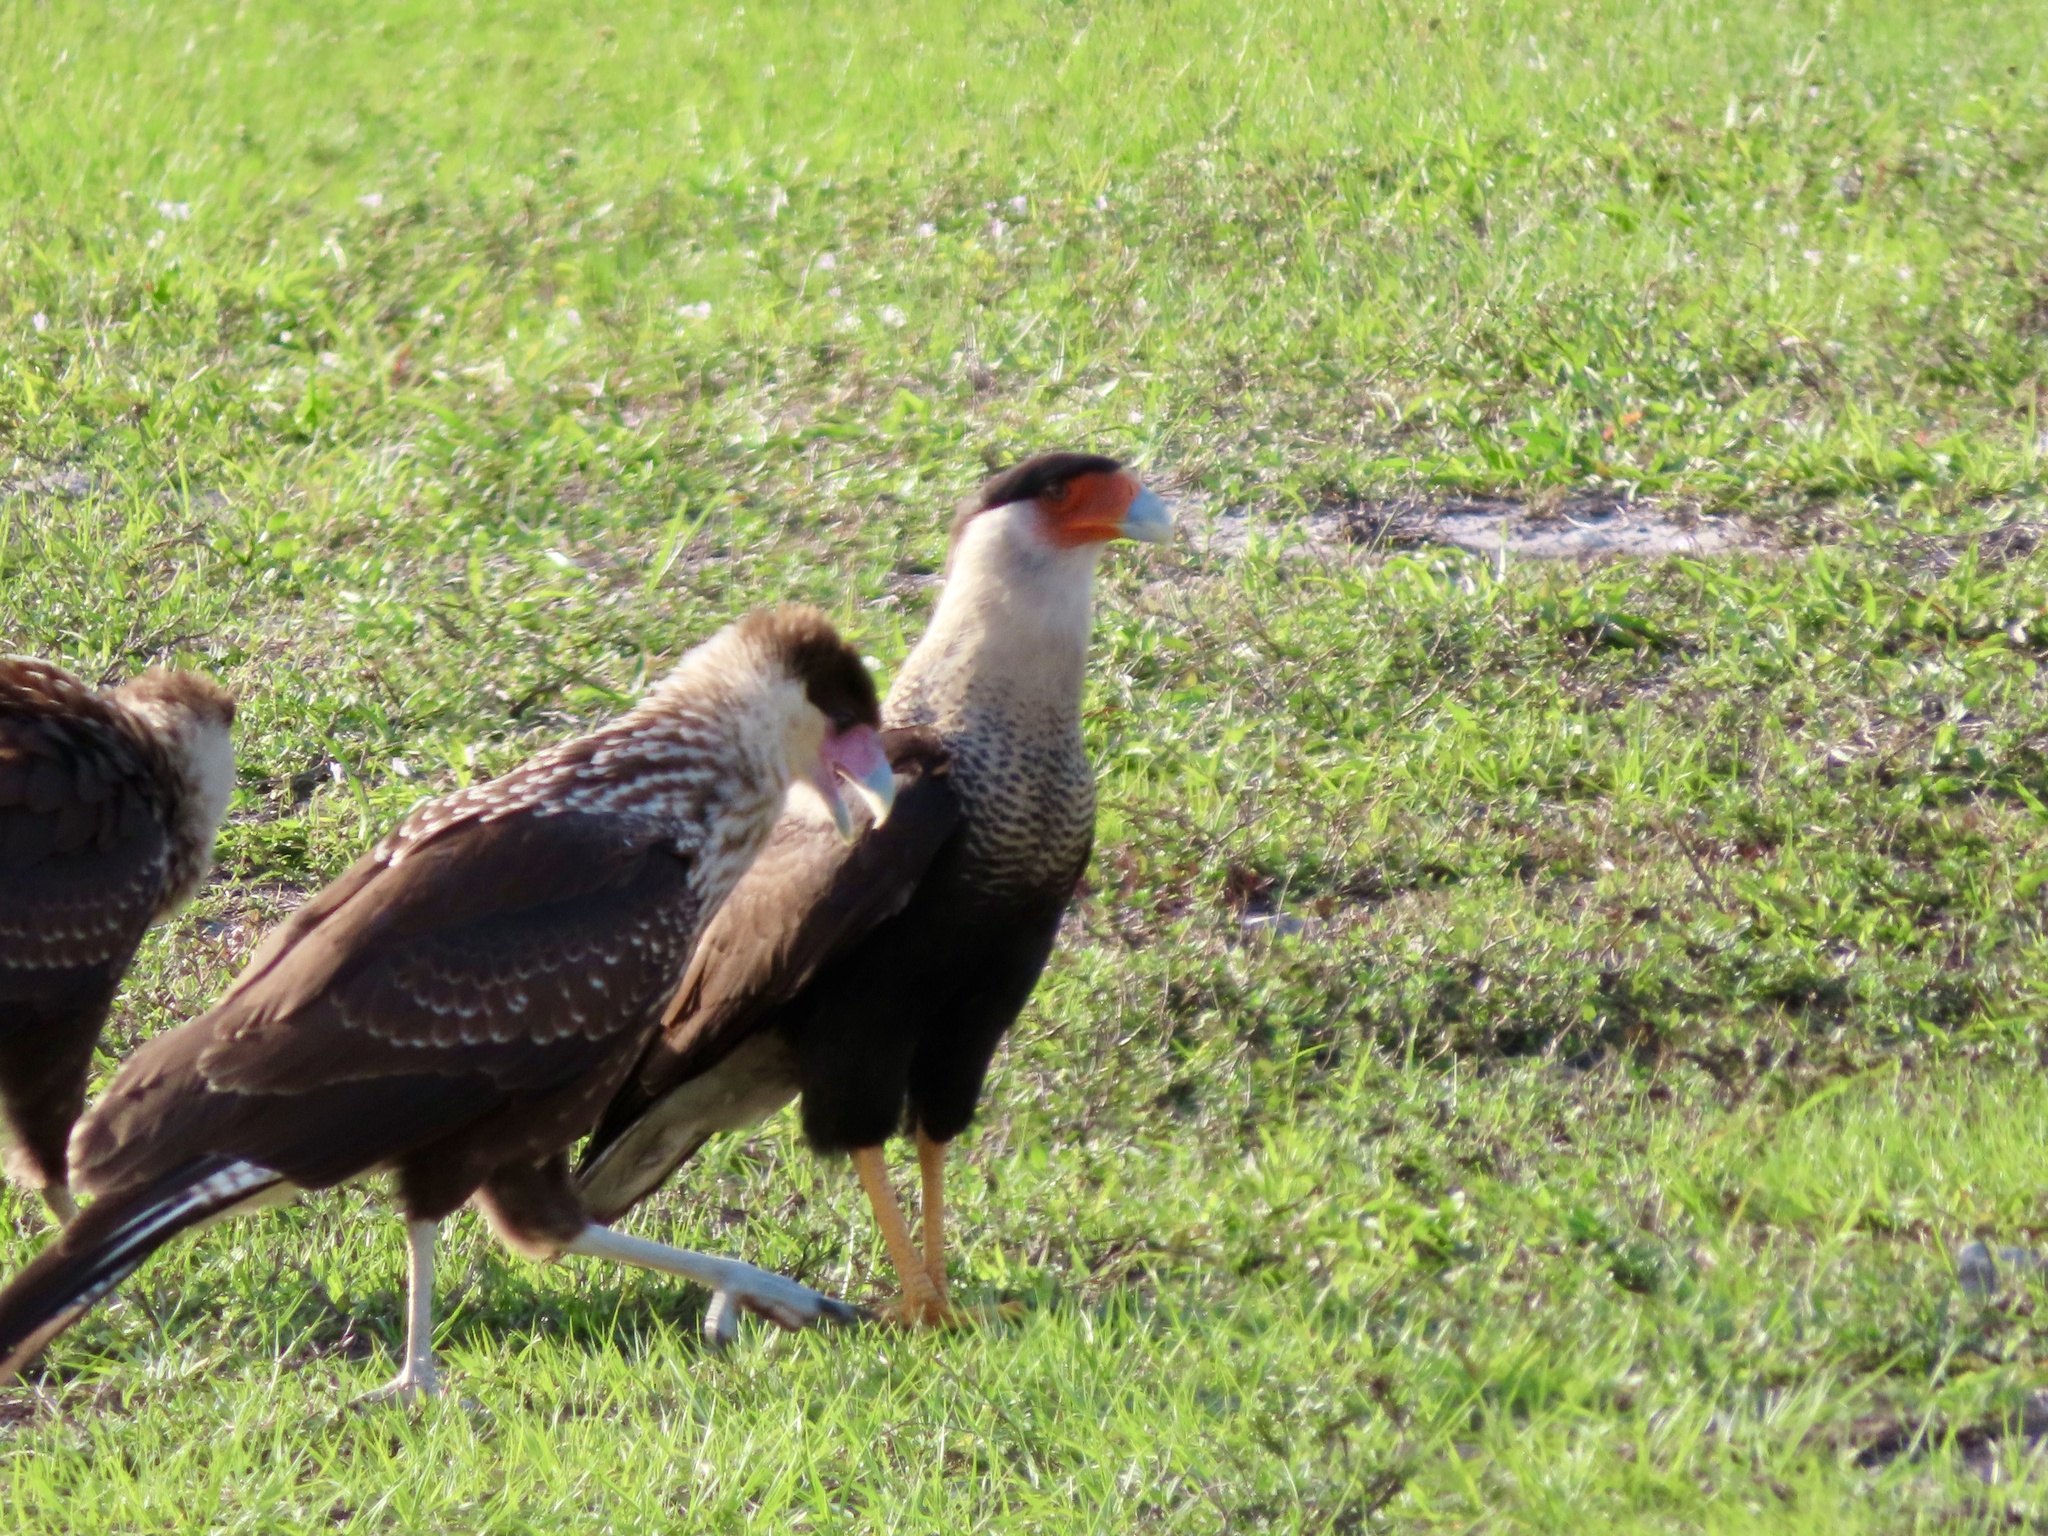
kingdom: Animalia
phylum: Chordata
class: Aves
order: Falconiformes
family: Falconidae
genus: Caracara
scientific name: Caracara plancus
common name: Southern caracara
